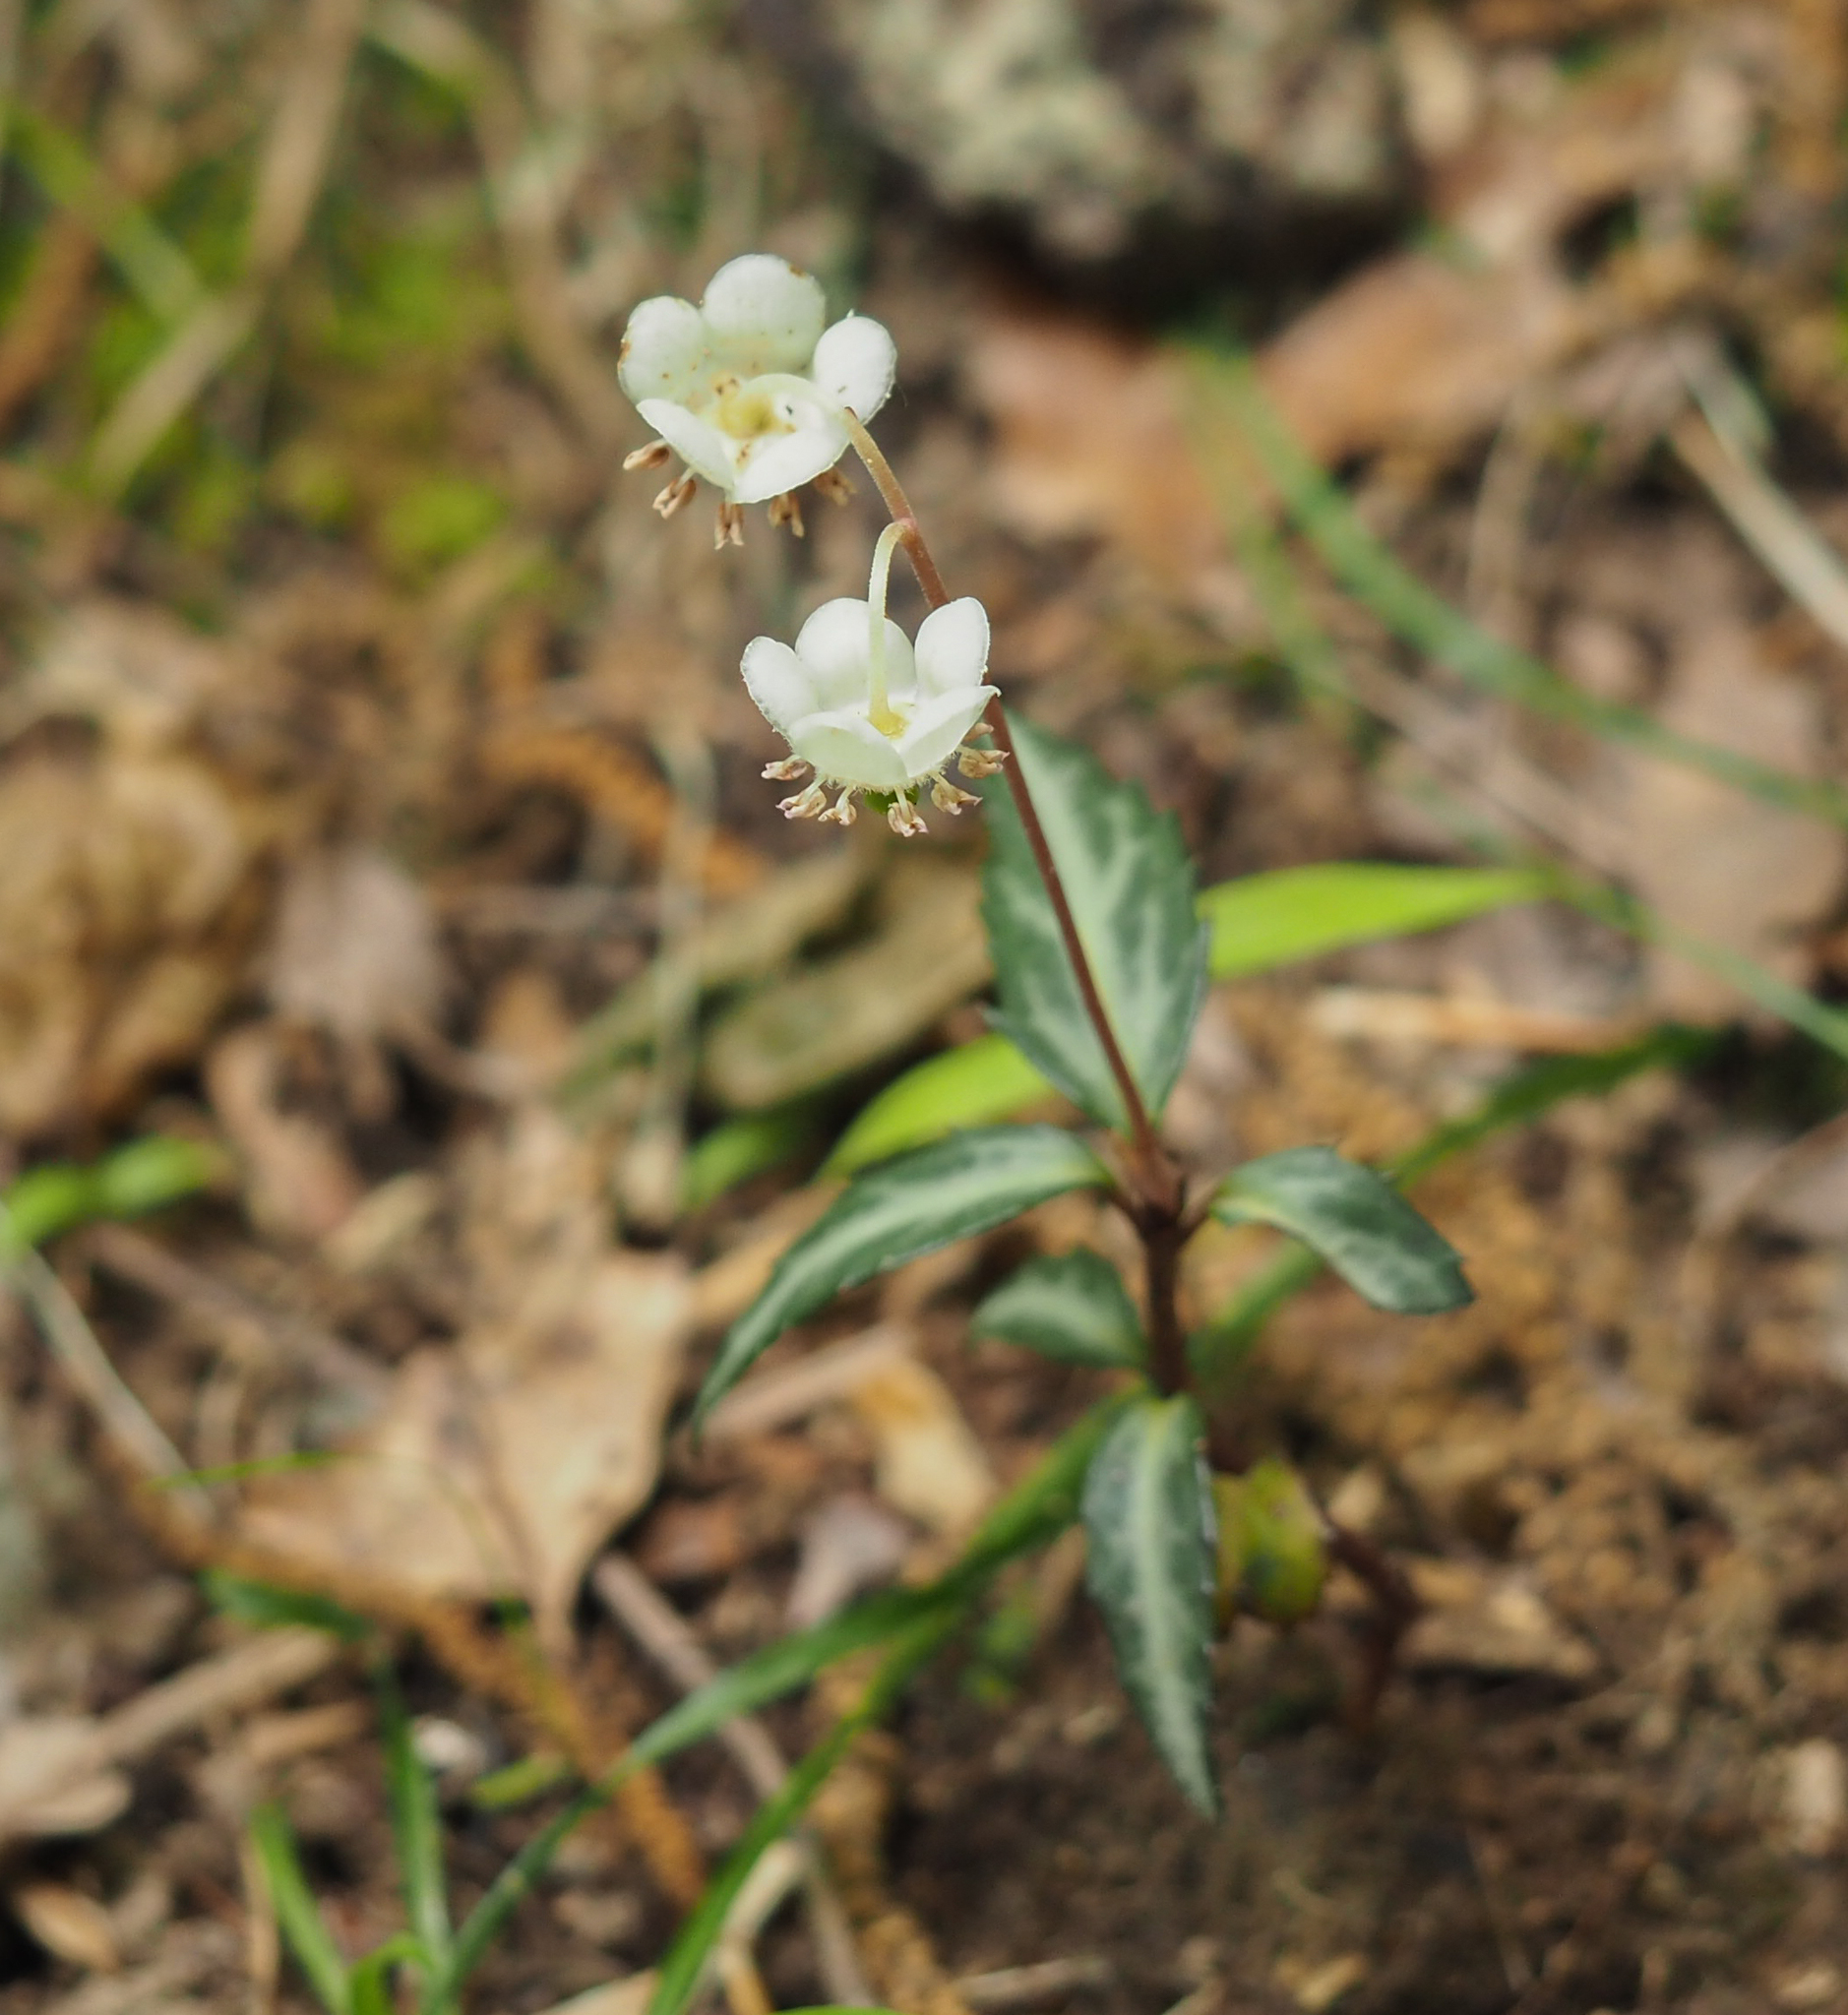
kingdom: Plantae
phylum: Tracheophyta
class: Magnoliopsida
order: Ericales
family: Ericaceae
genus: Chimaphila
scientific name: Chimaphila maculata
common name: Spotted pipsissewa
